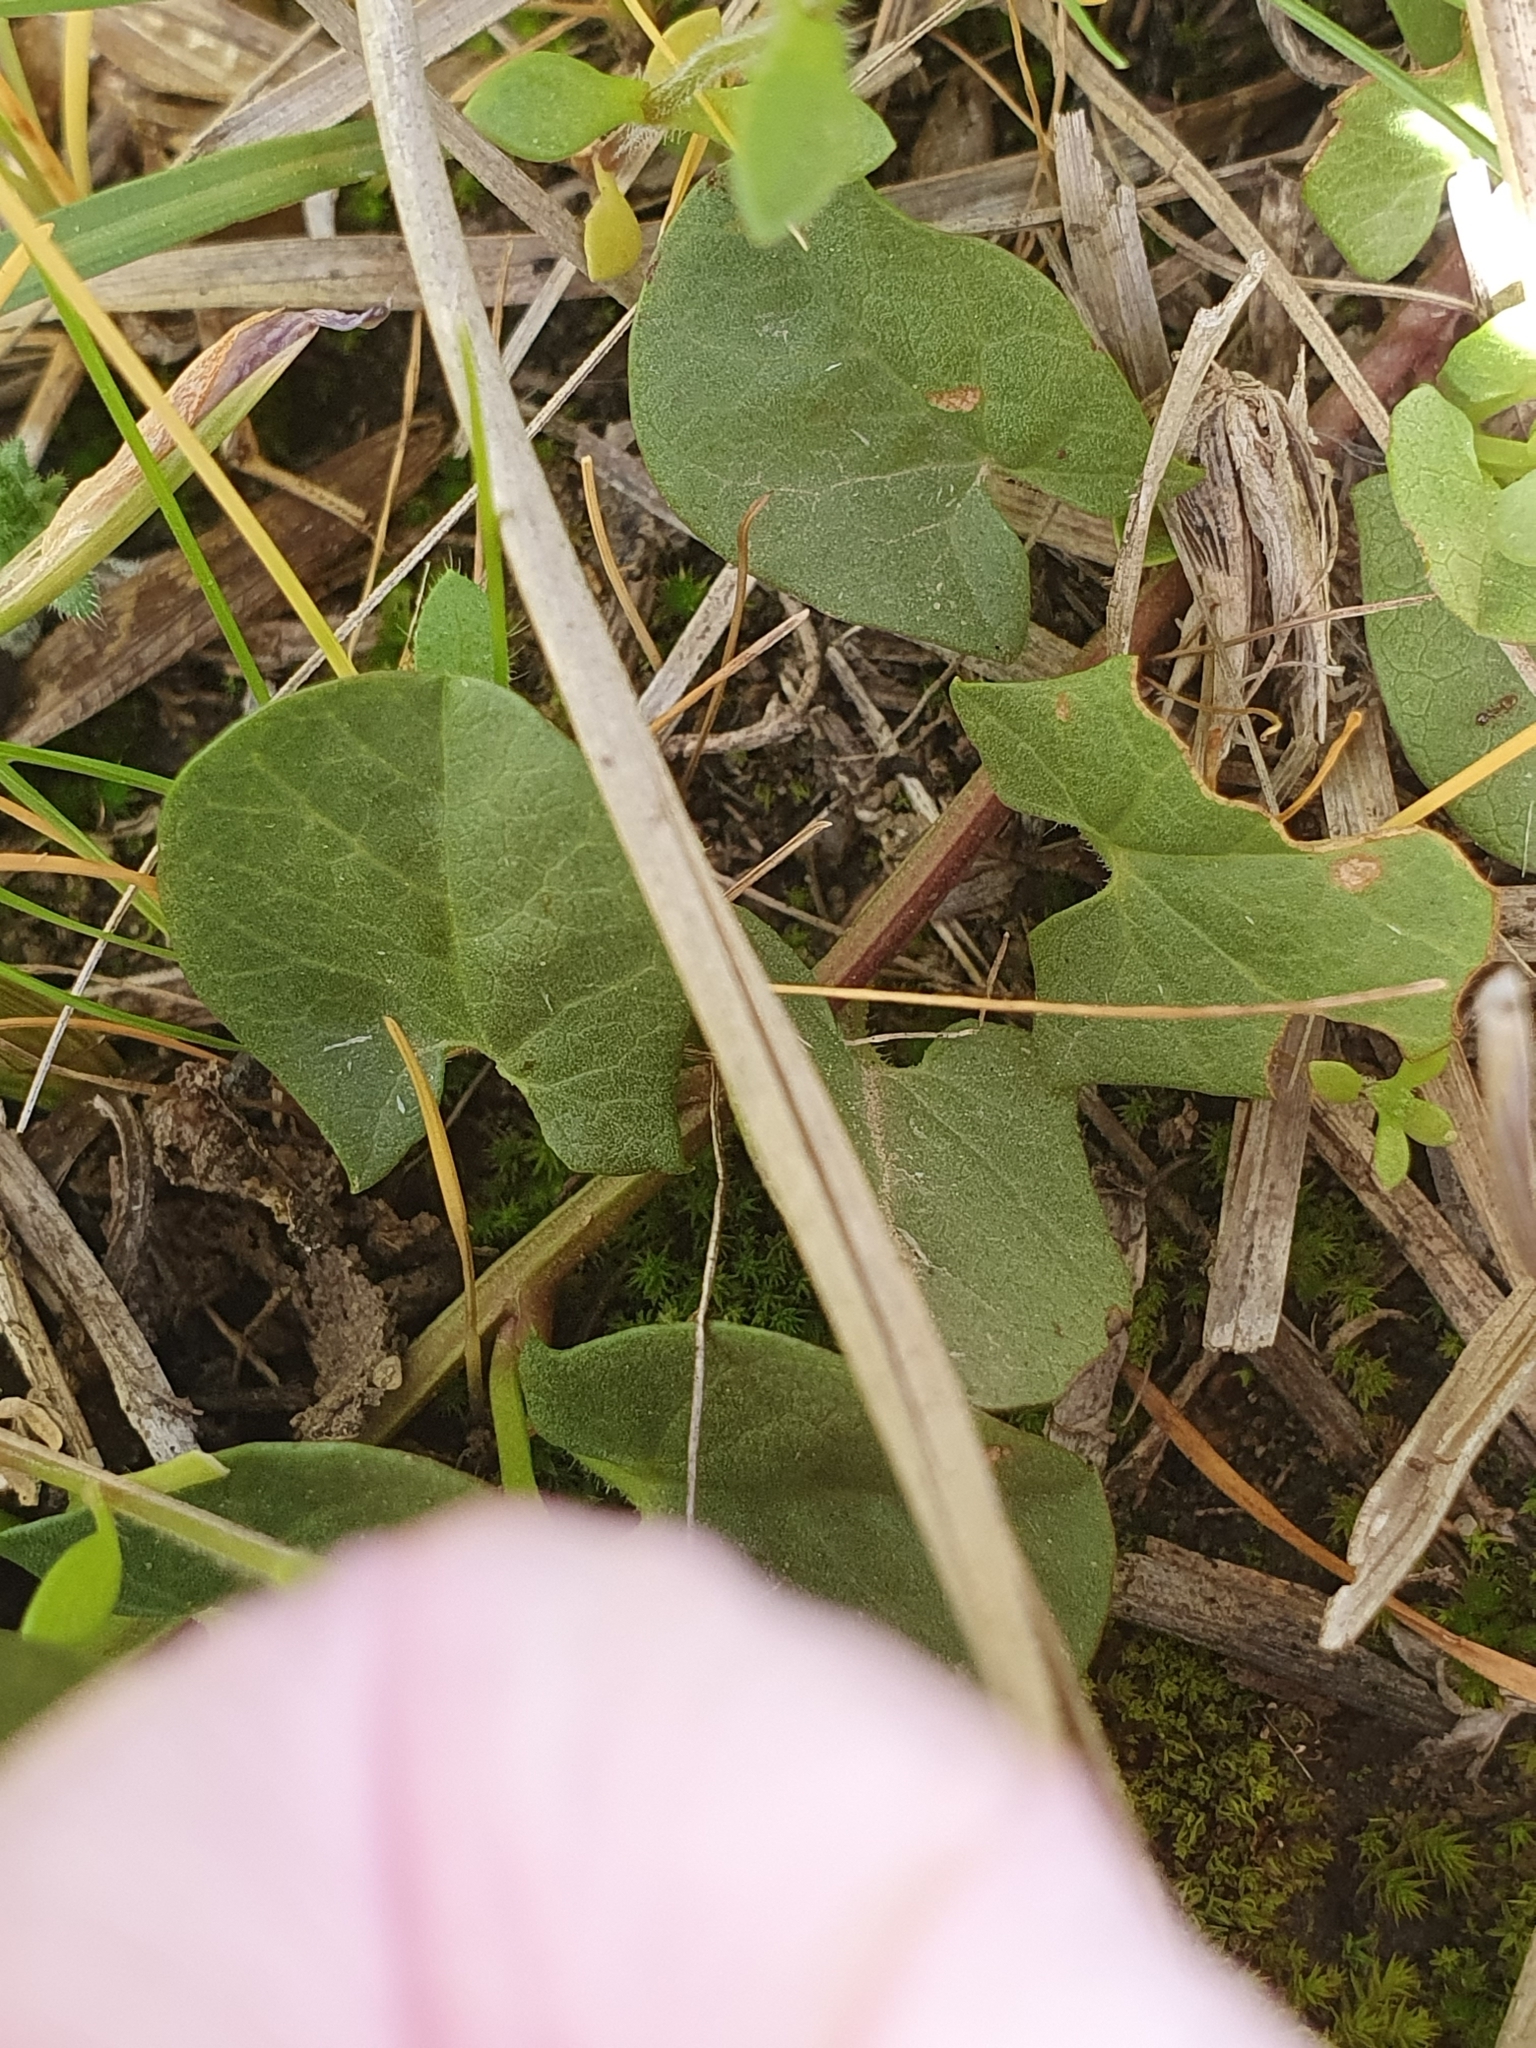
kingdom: Plantae
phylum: Tracheophyta
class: Magnoliopsida
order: Solanales
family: Convolvulaceae
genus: Convolvulus
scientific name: Convolvulus durandoi
